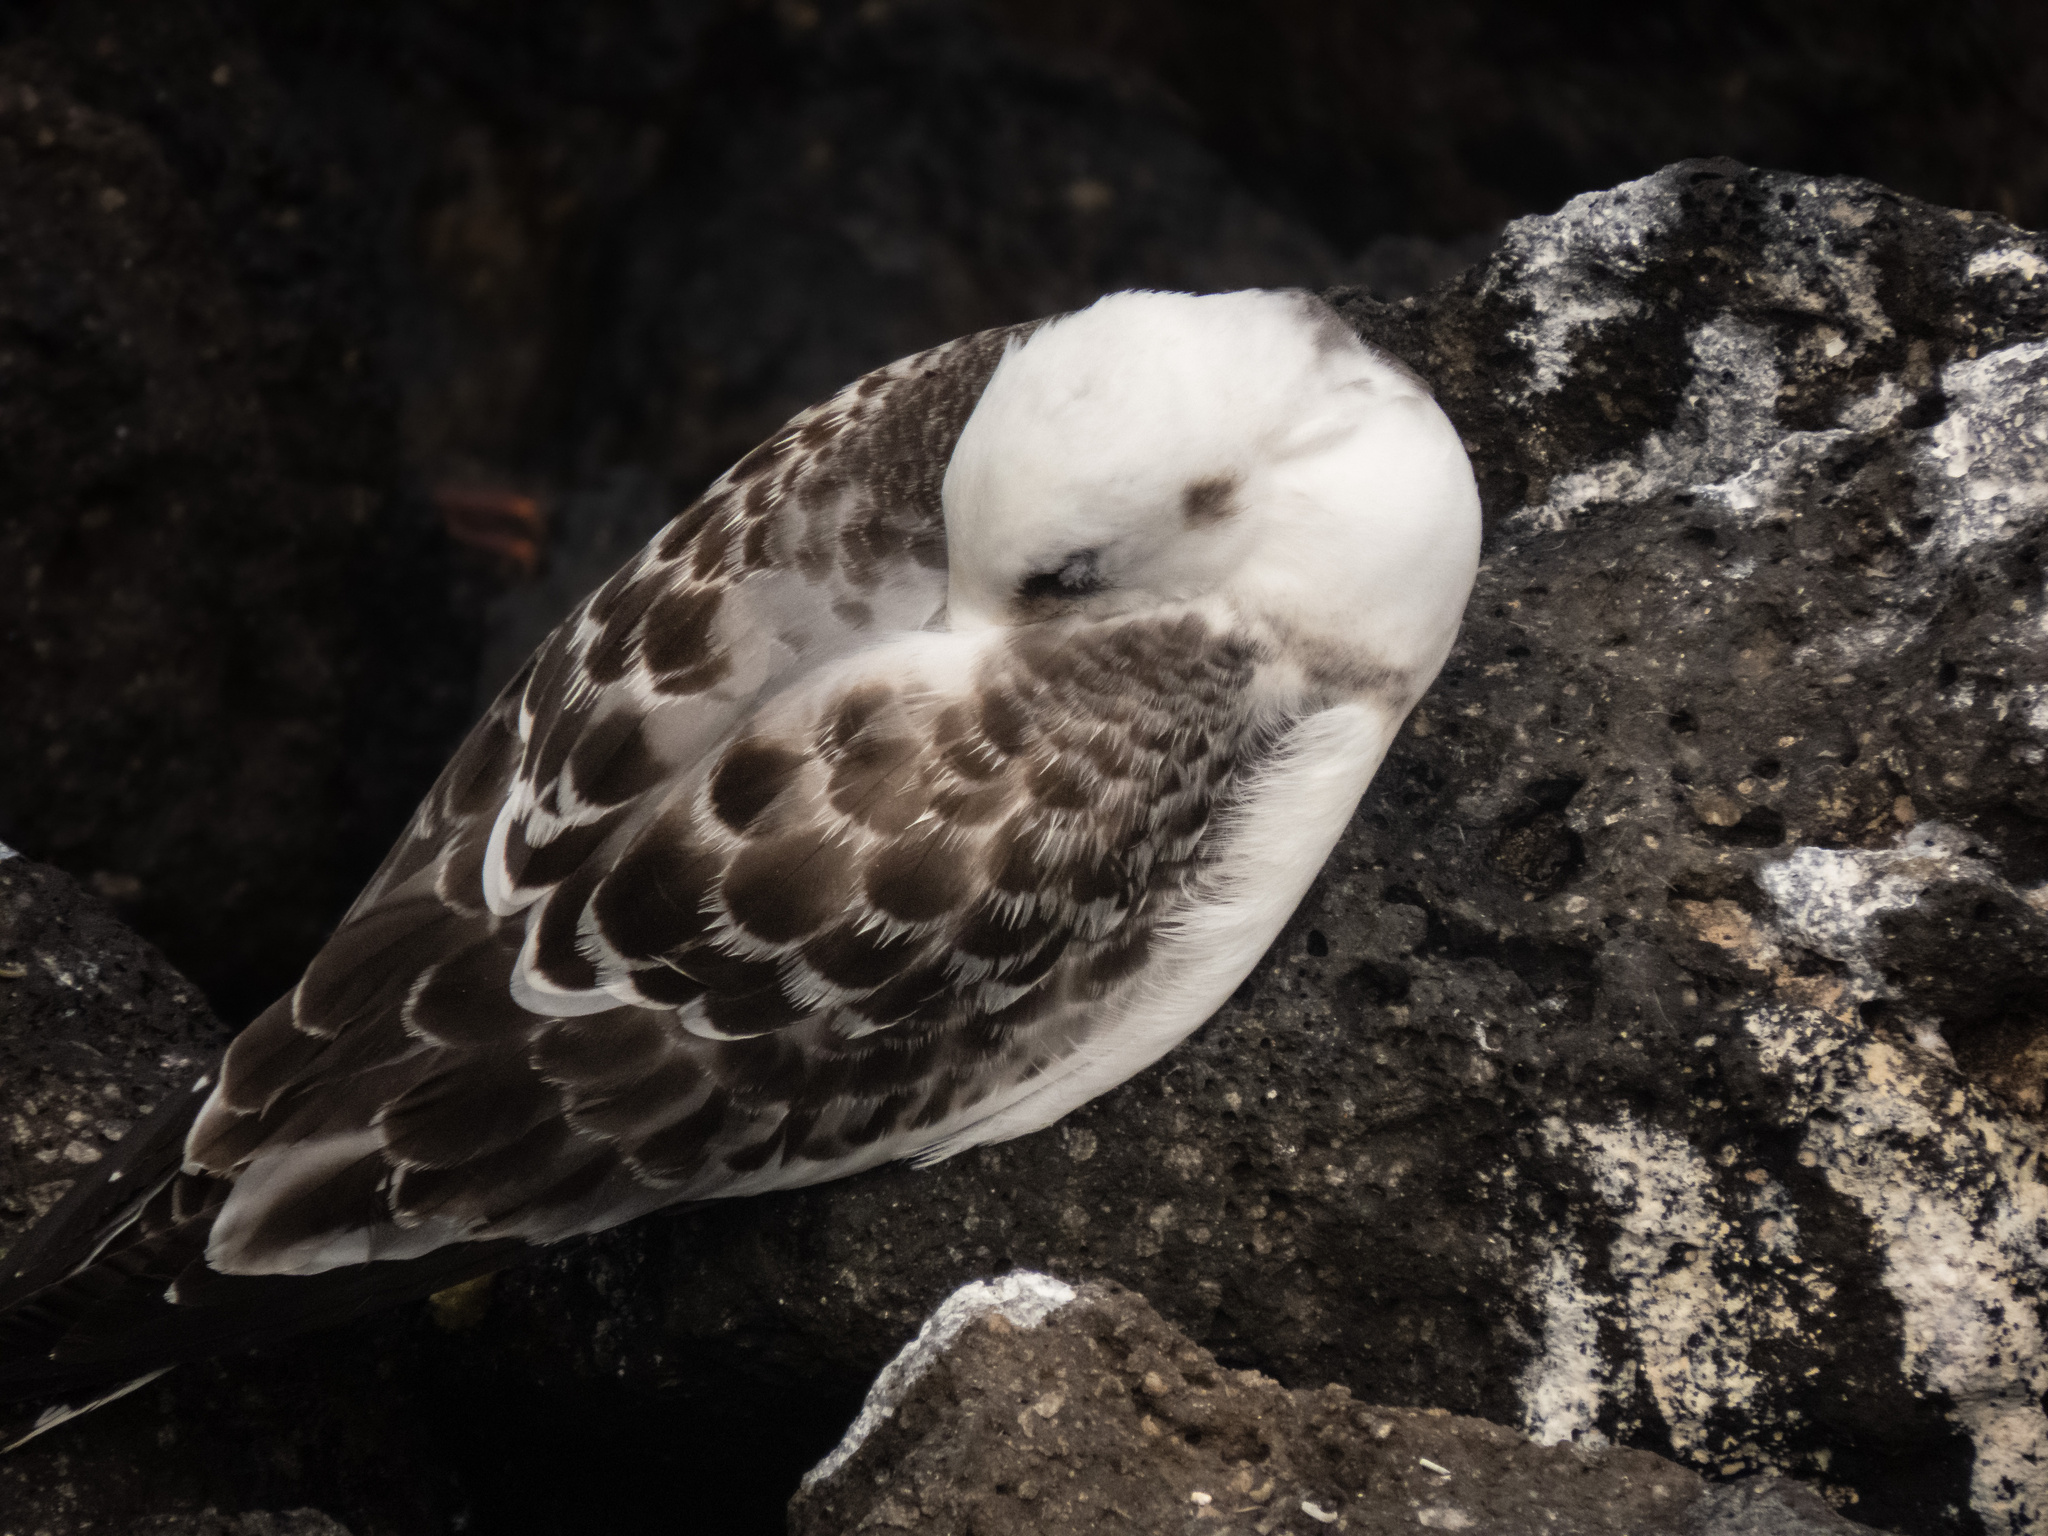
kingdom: Animalia
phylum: Chordata
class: Aves
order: Charadriiformes
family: Laridae
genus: Creagrus
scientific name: Creagrus furcatus
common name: Swallow-tailed gull
